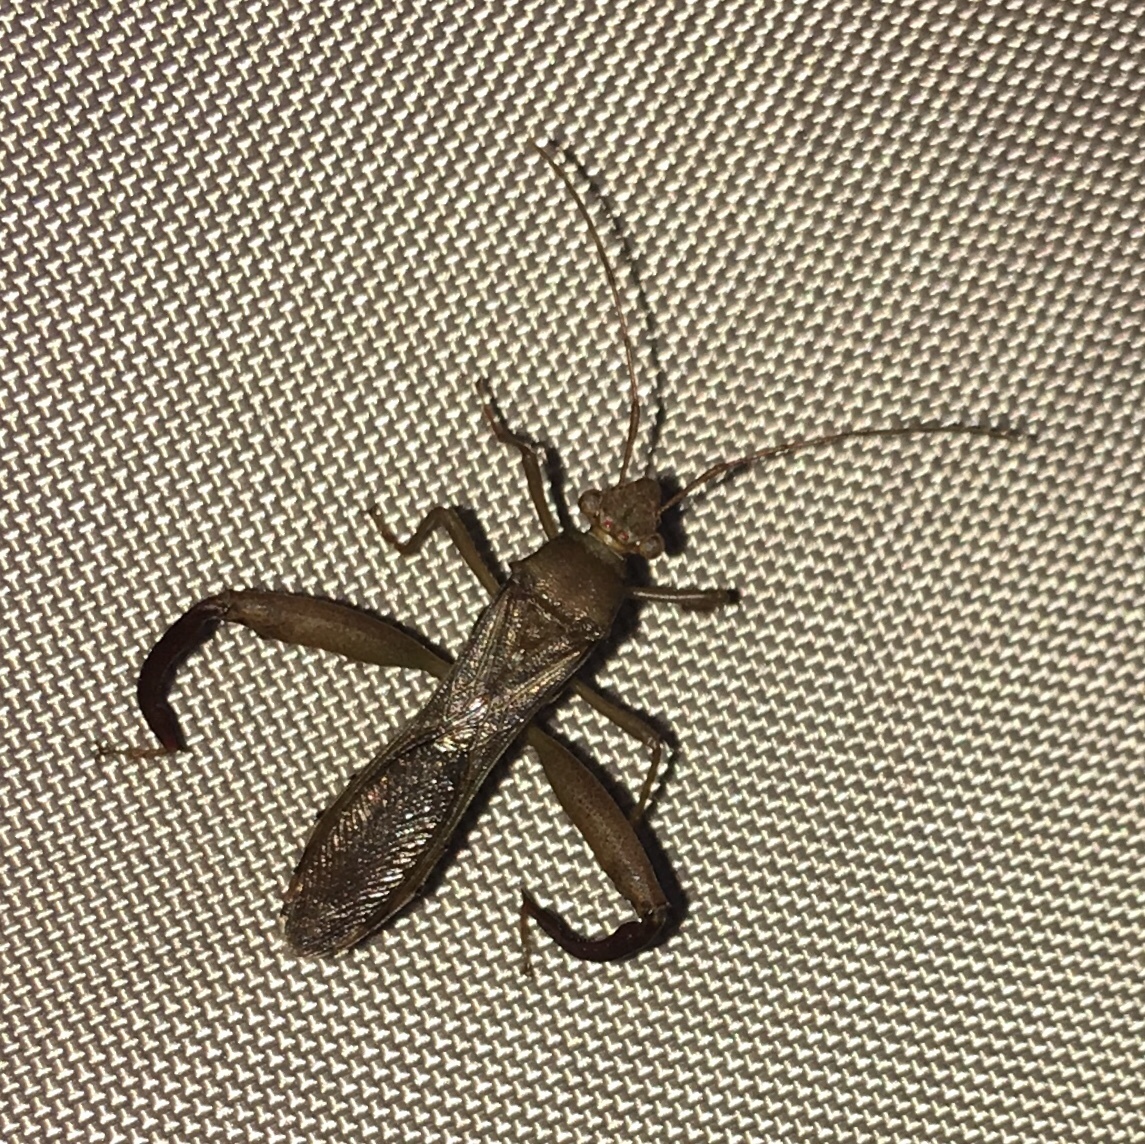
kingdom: Animalia
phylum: Arthropoda
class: Insecta
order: Hemiptera
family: Alydidae
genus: Hyalymenus
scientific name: Hyalymenus tarsatus
